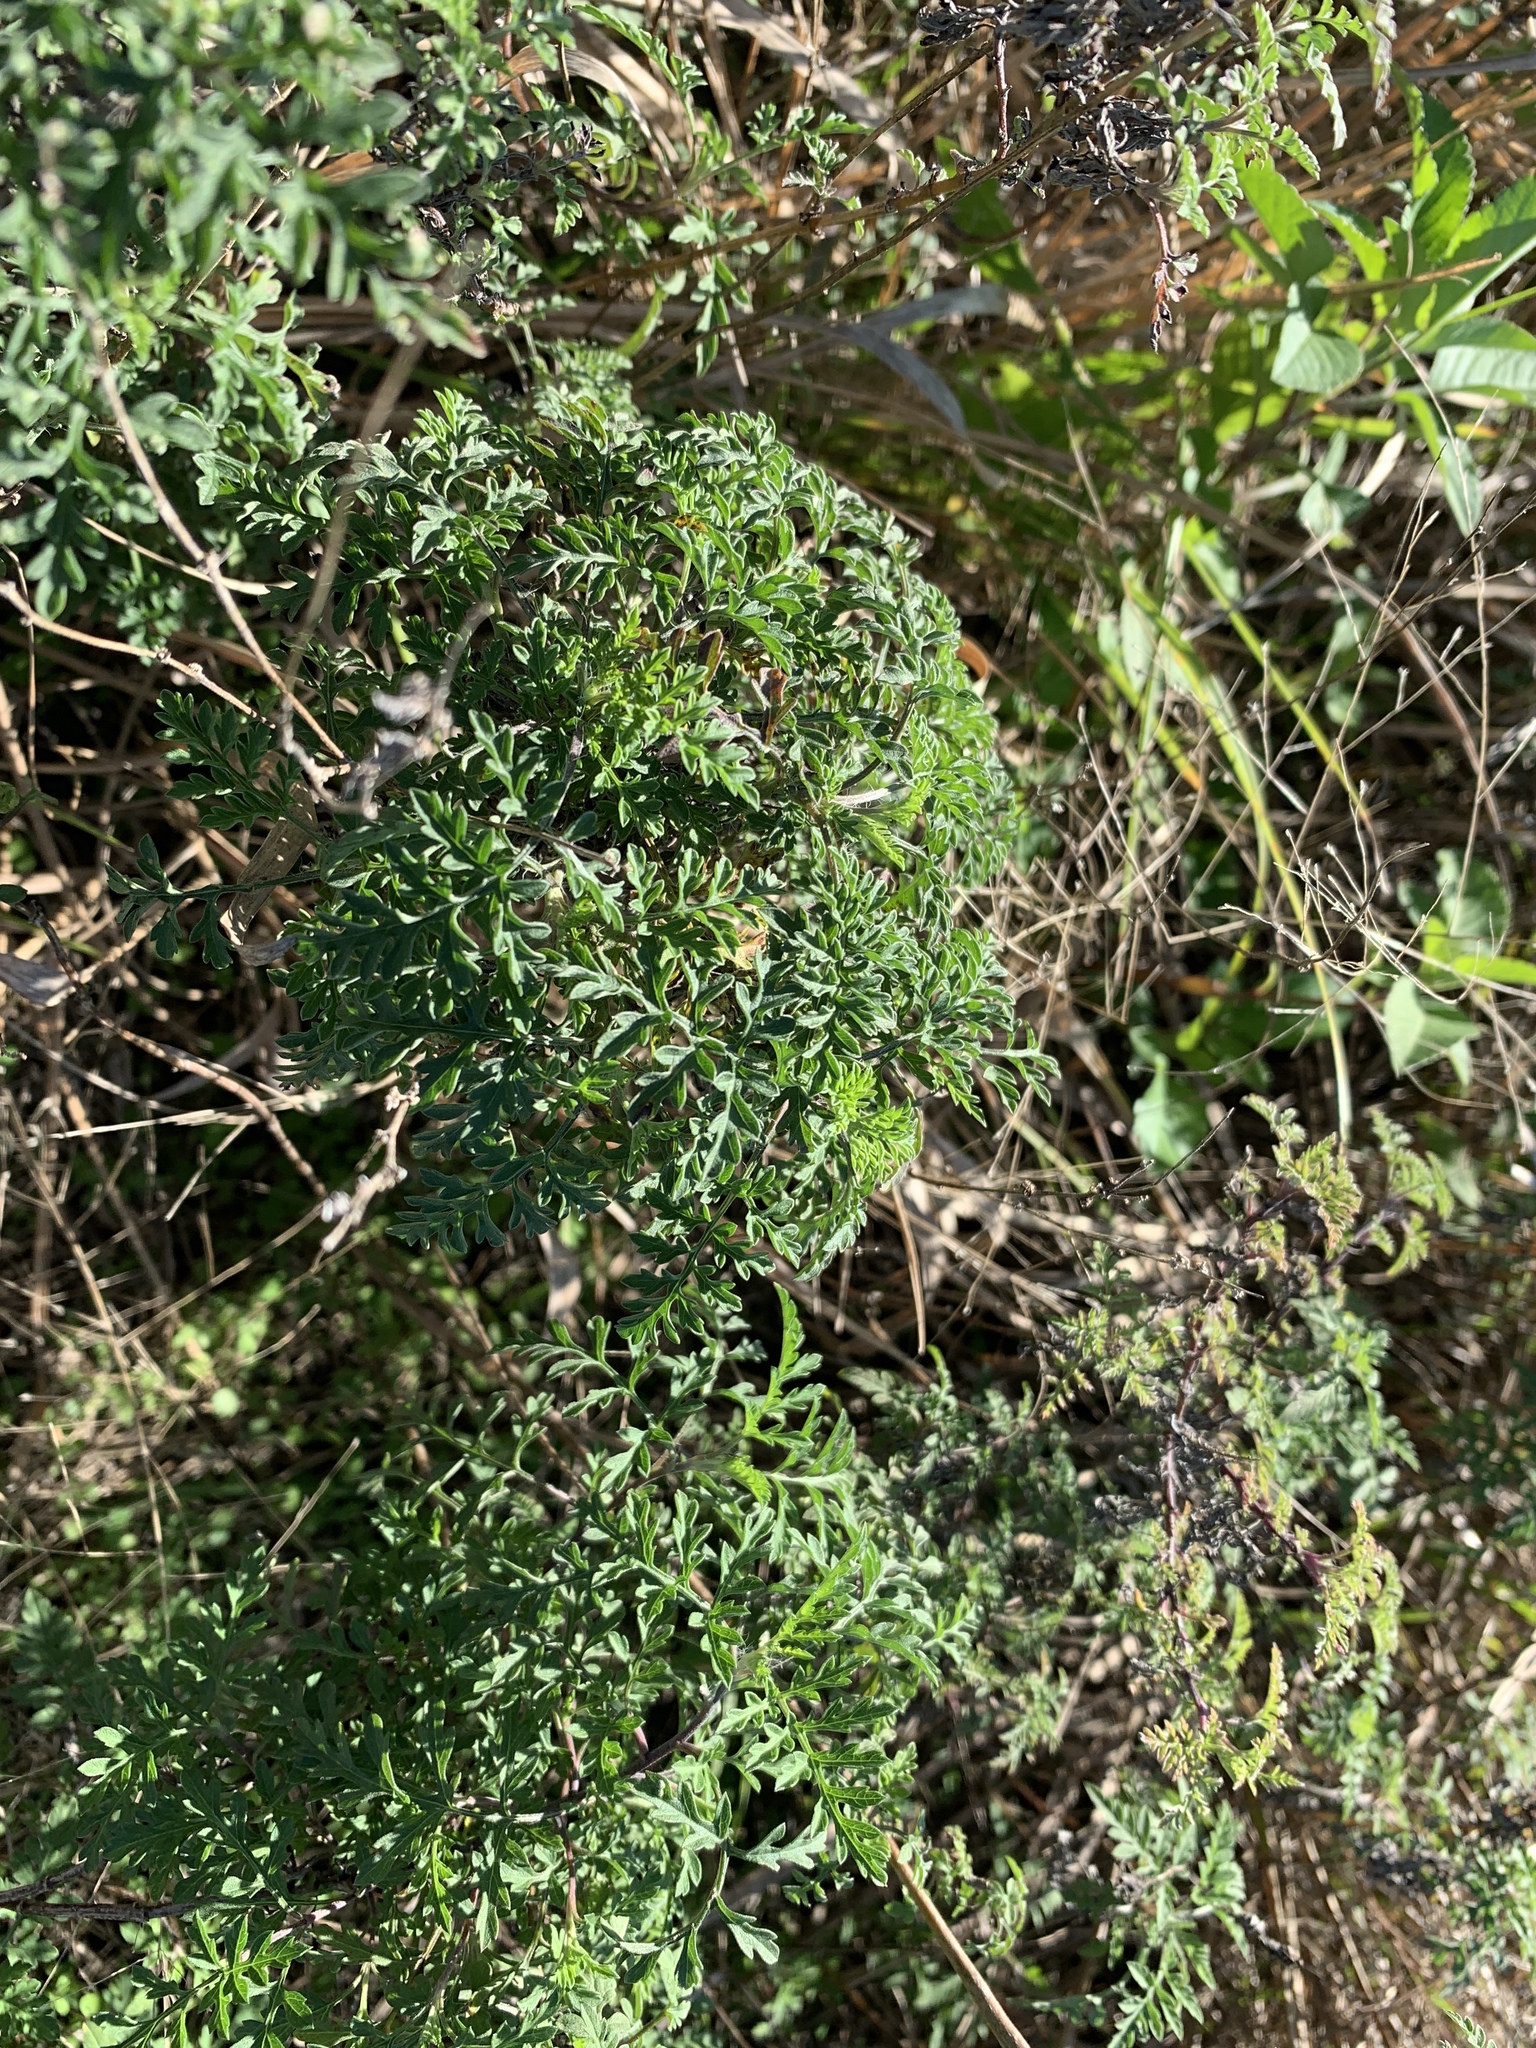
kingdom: Plantae
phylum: Tracheophyta
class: Magnoliopsida
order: Asterales
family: Asteraceae
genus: Ambrosia
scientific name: Ambrosia artemisiifolia
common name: Annual ragweed
